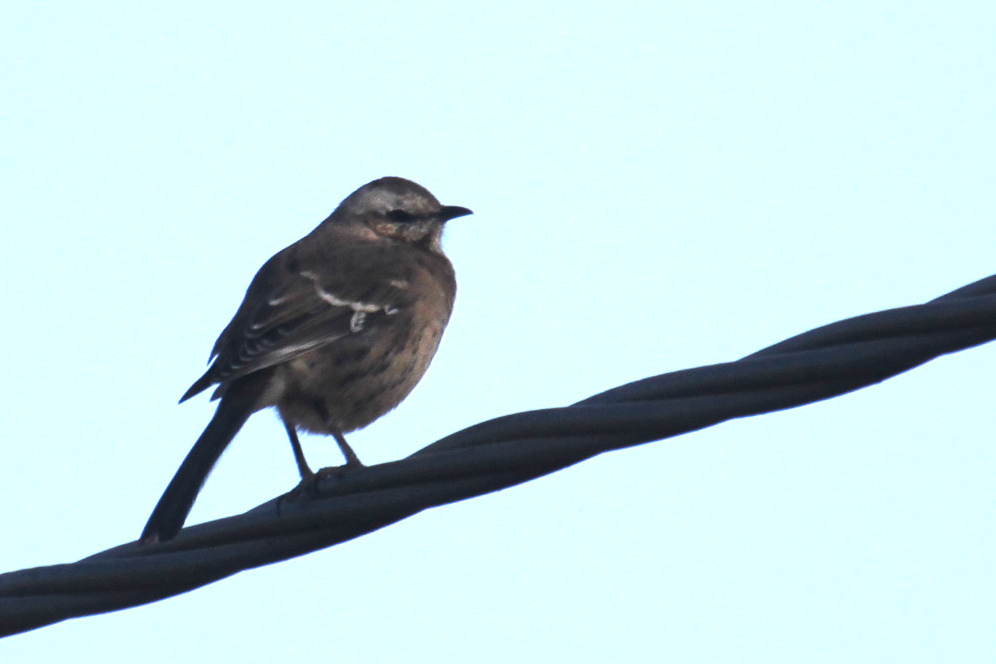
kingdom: Animalia
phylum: Chordata
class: Aves
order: Passeriformes
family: Mimidae
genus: Mimus
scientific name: Mimus thenca
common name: Chilean mockingbird
